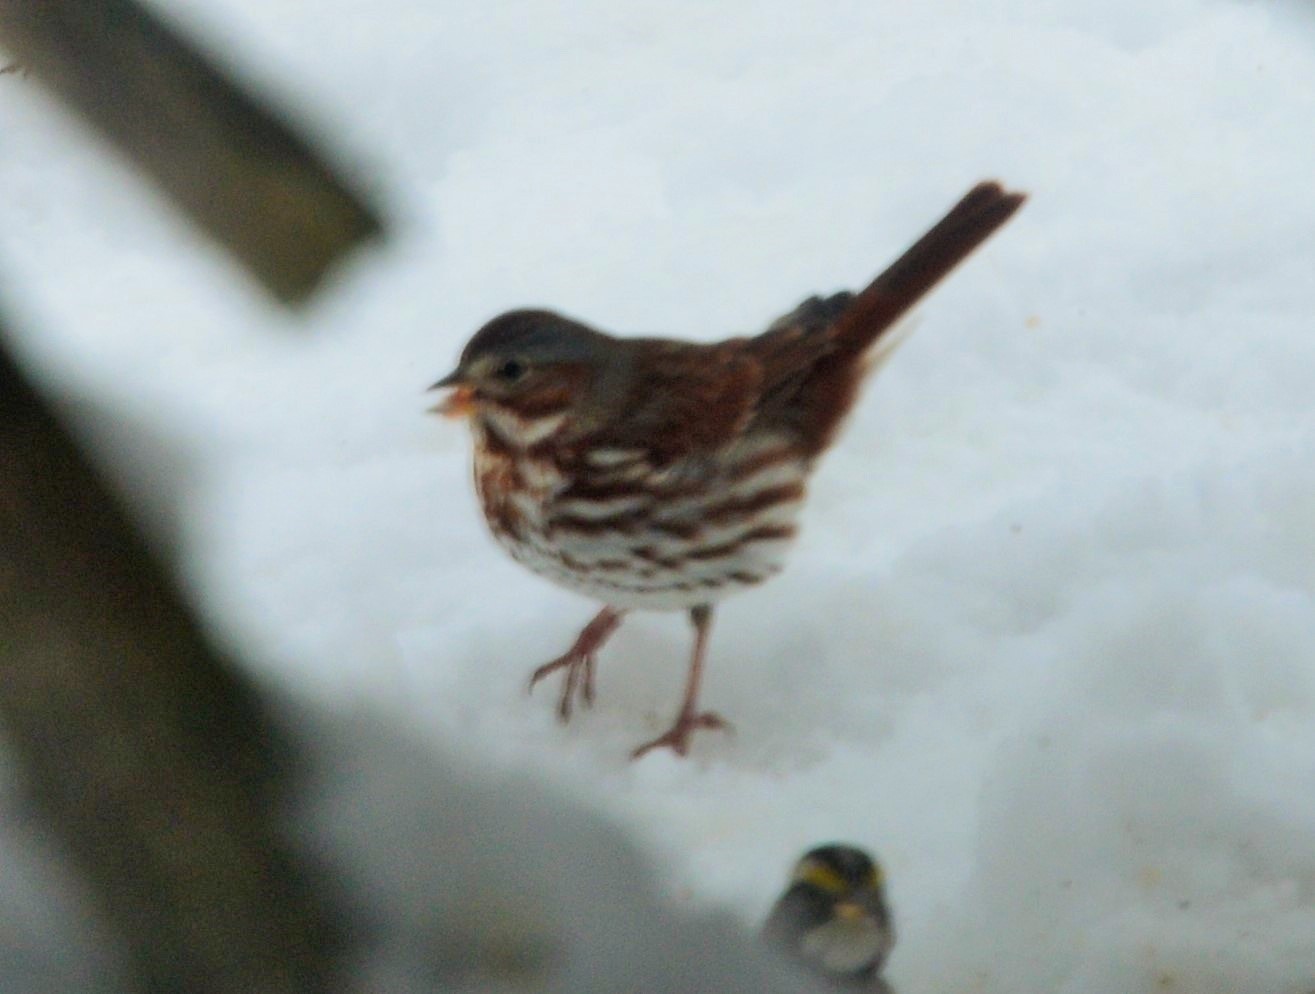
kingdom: Animalia
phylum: Chordata
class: Aves
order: Passeriformes
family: Passerellidae
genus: Passerella
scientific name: Passerella iliaca
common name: Fox sparrow
